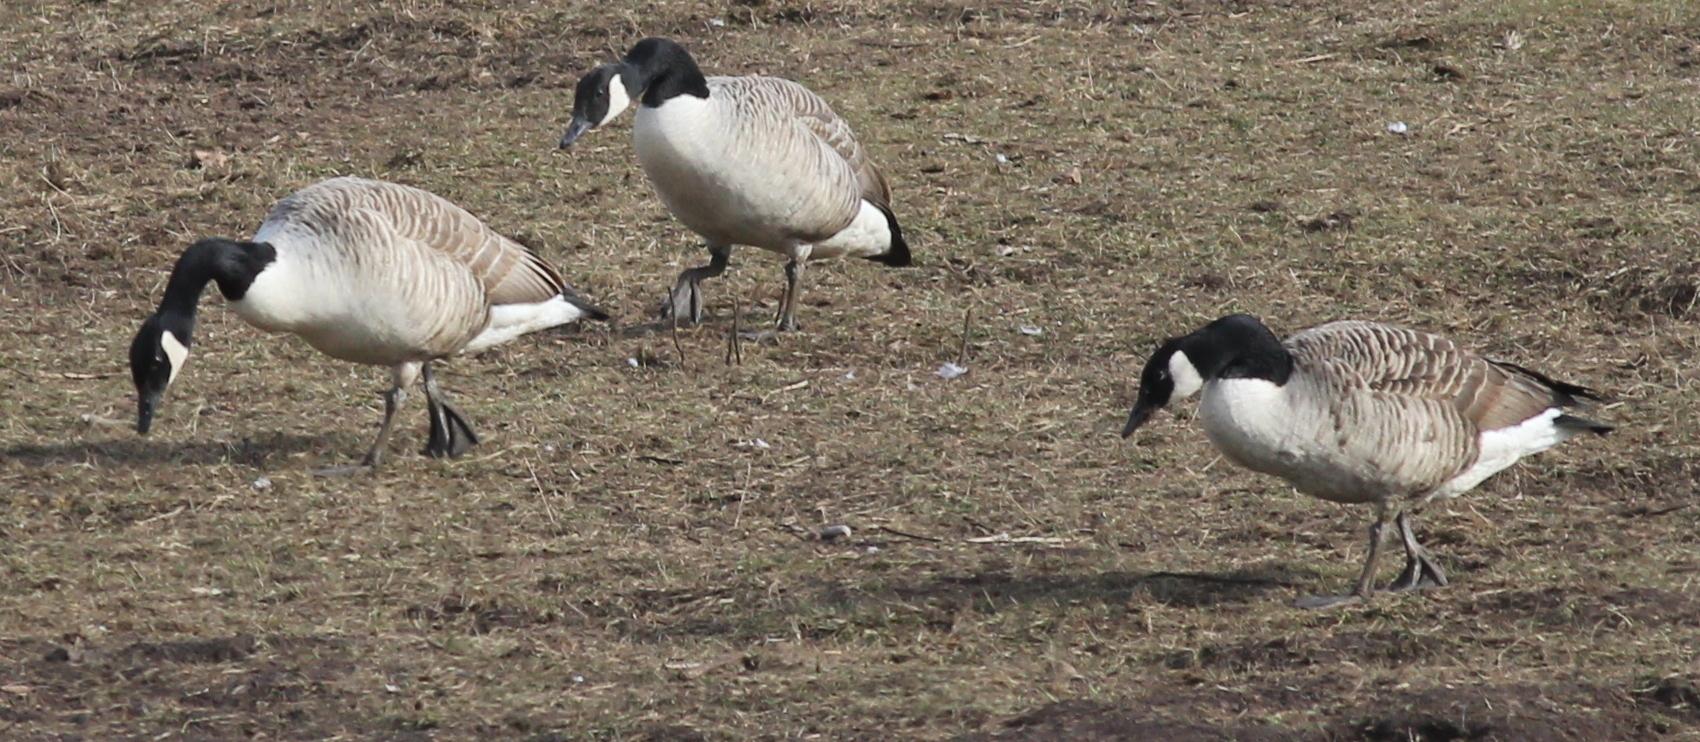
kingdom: Animalia
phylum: Chordata
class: Aves
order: Anseriformes
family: Anatidae
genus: Branta
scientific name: Branta canadensis
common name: Canada goose
